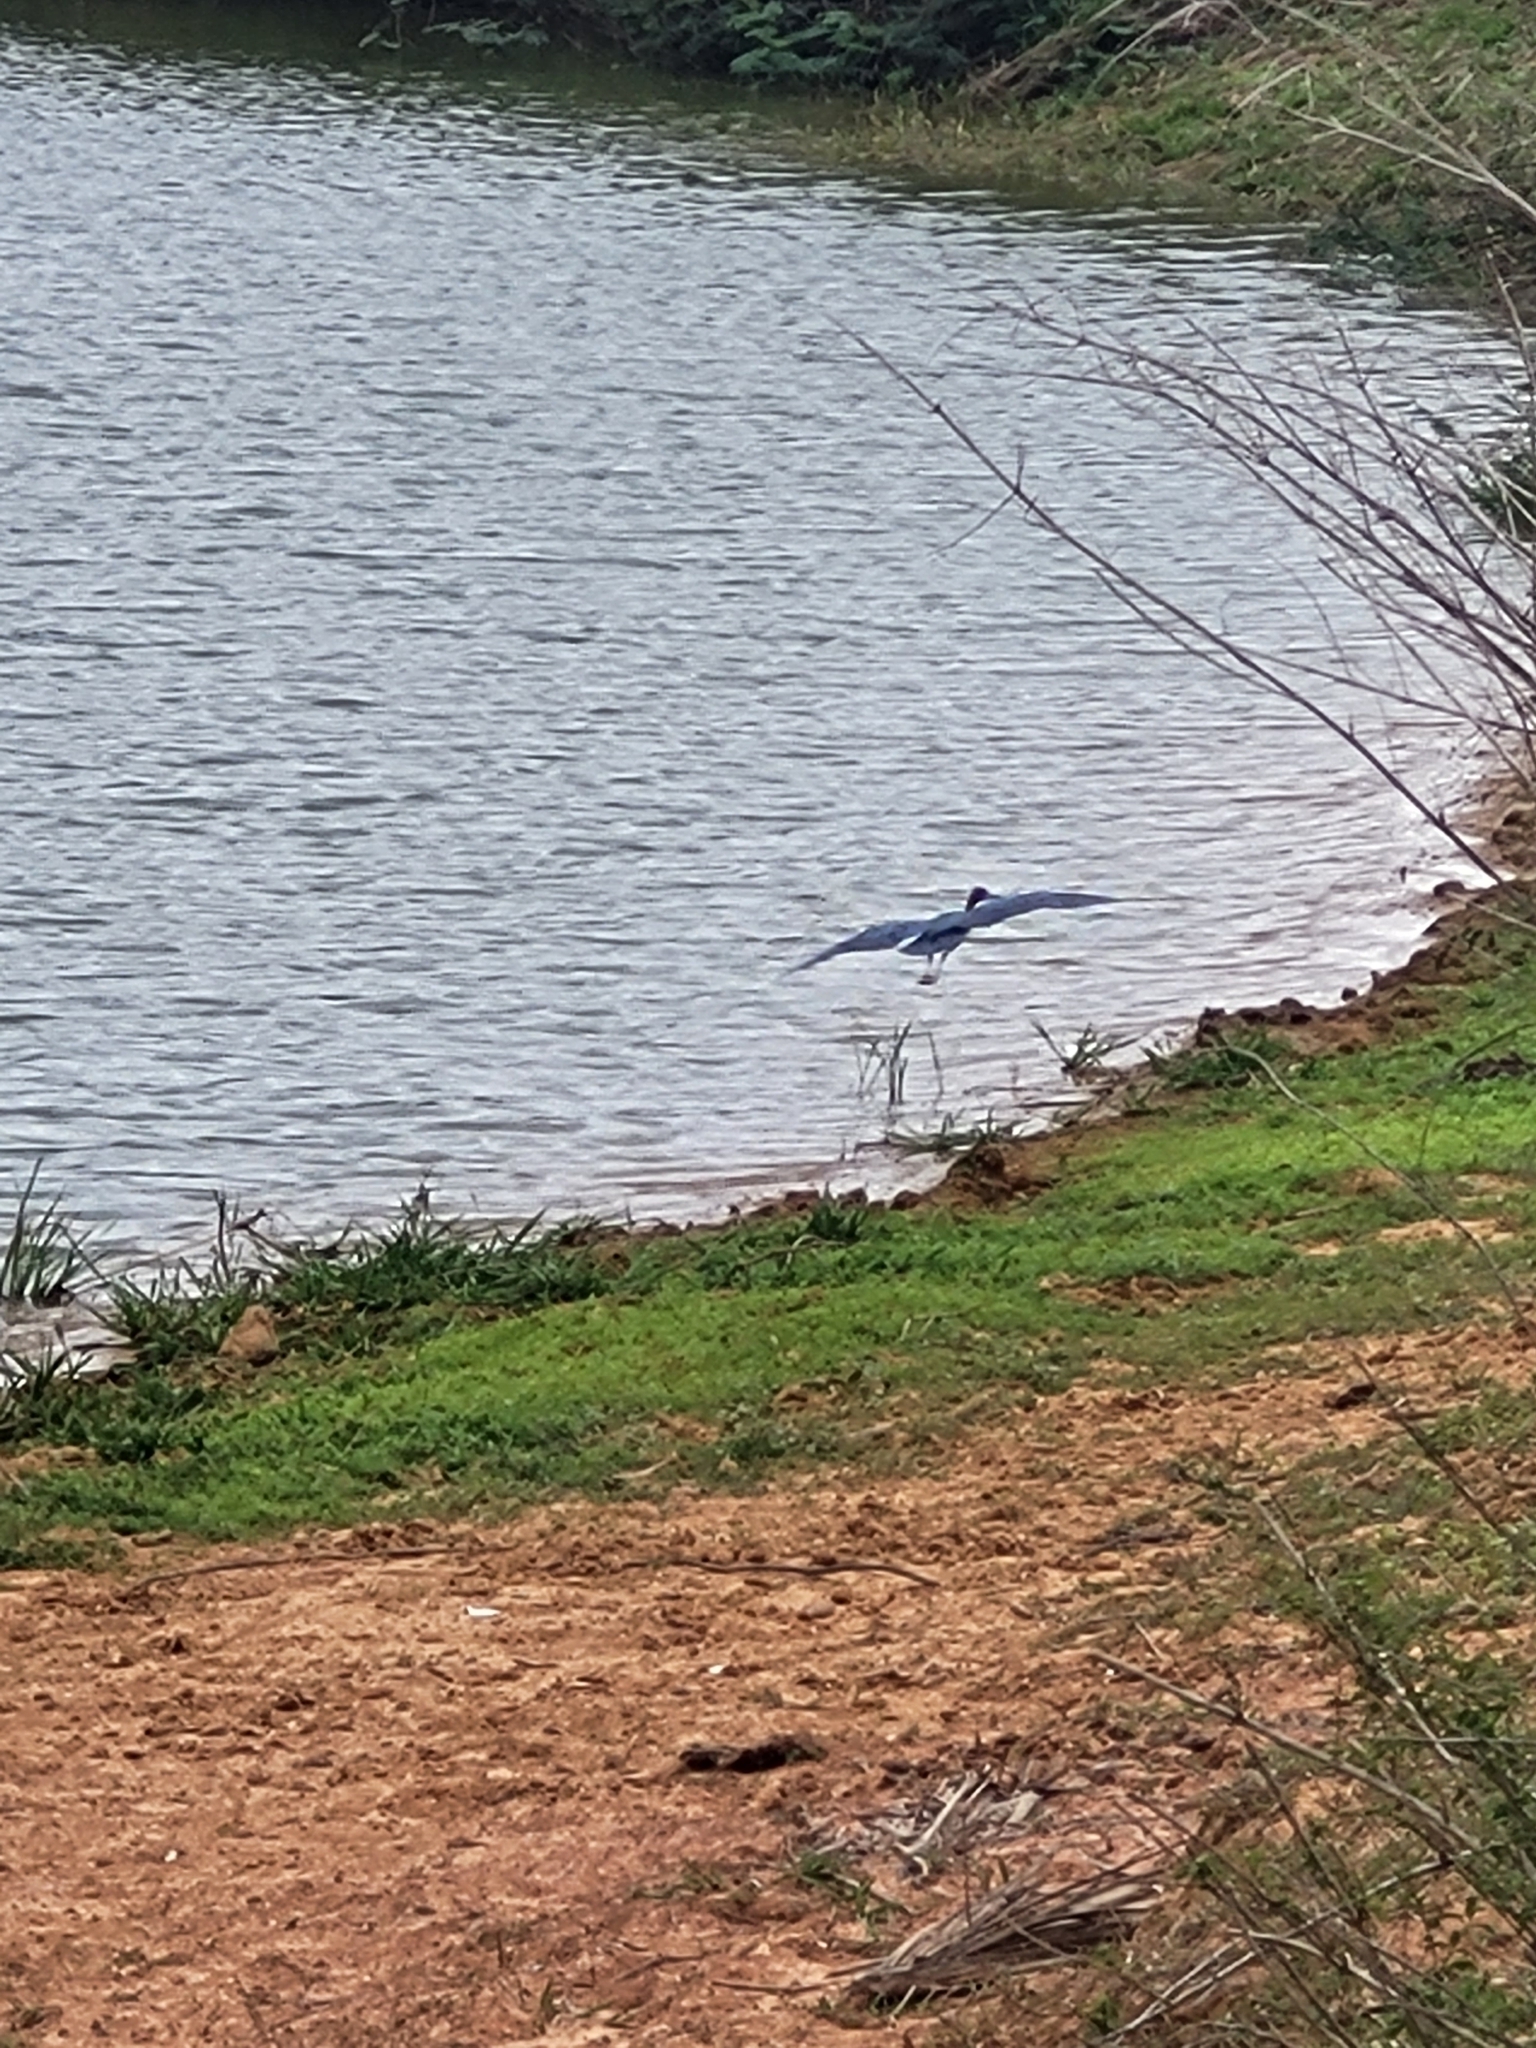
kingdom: Animalia
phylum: Chordata
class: Aves
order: Pelecaniformes
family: Ardeidae
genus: Egretta
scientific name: Egretta caerulea
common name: Little blue heron
